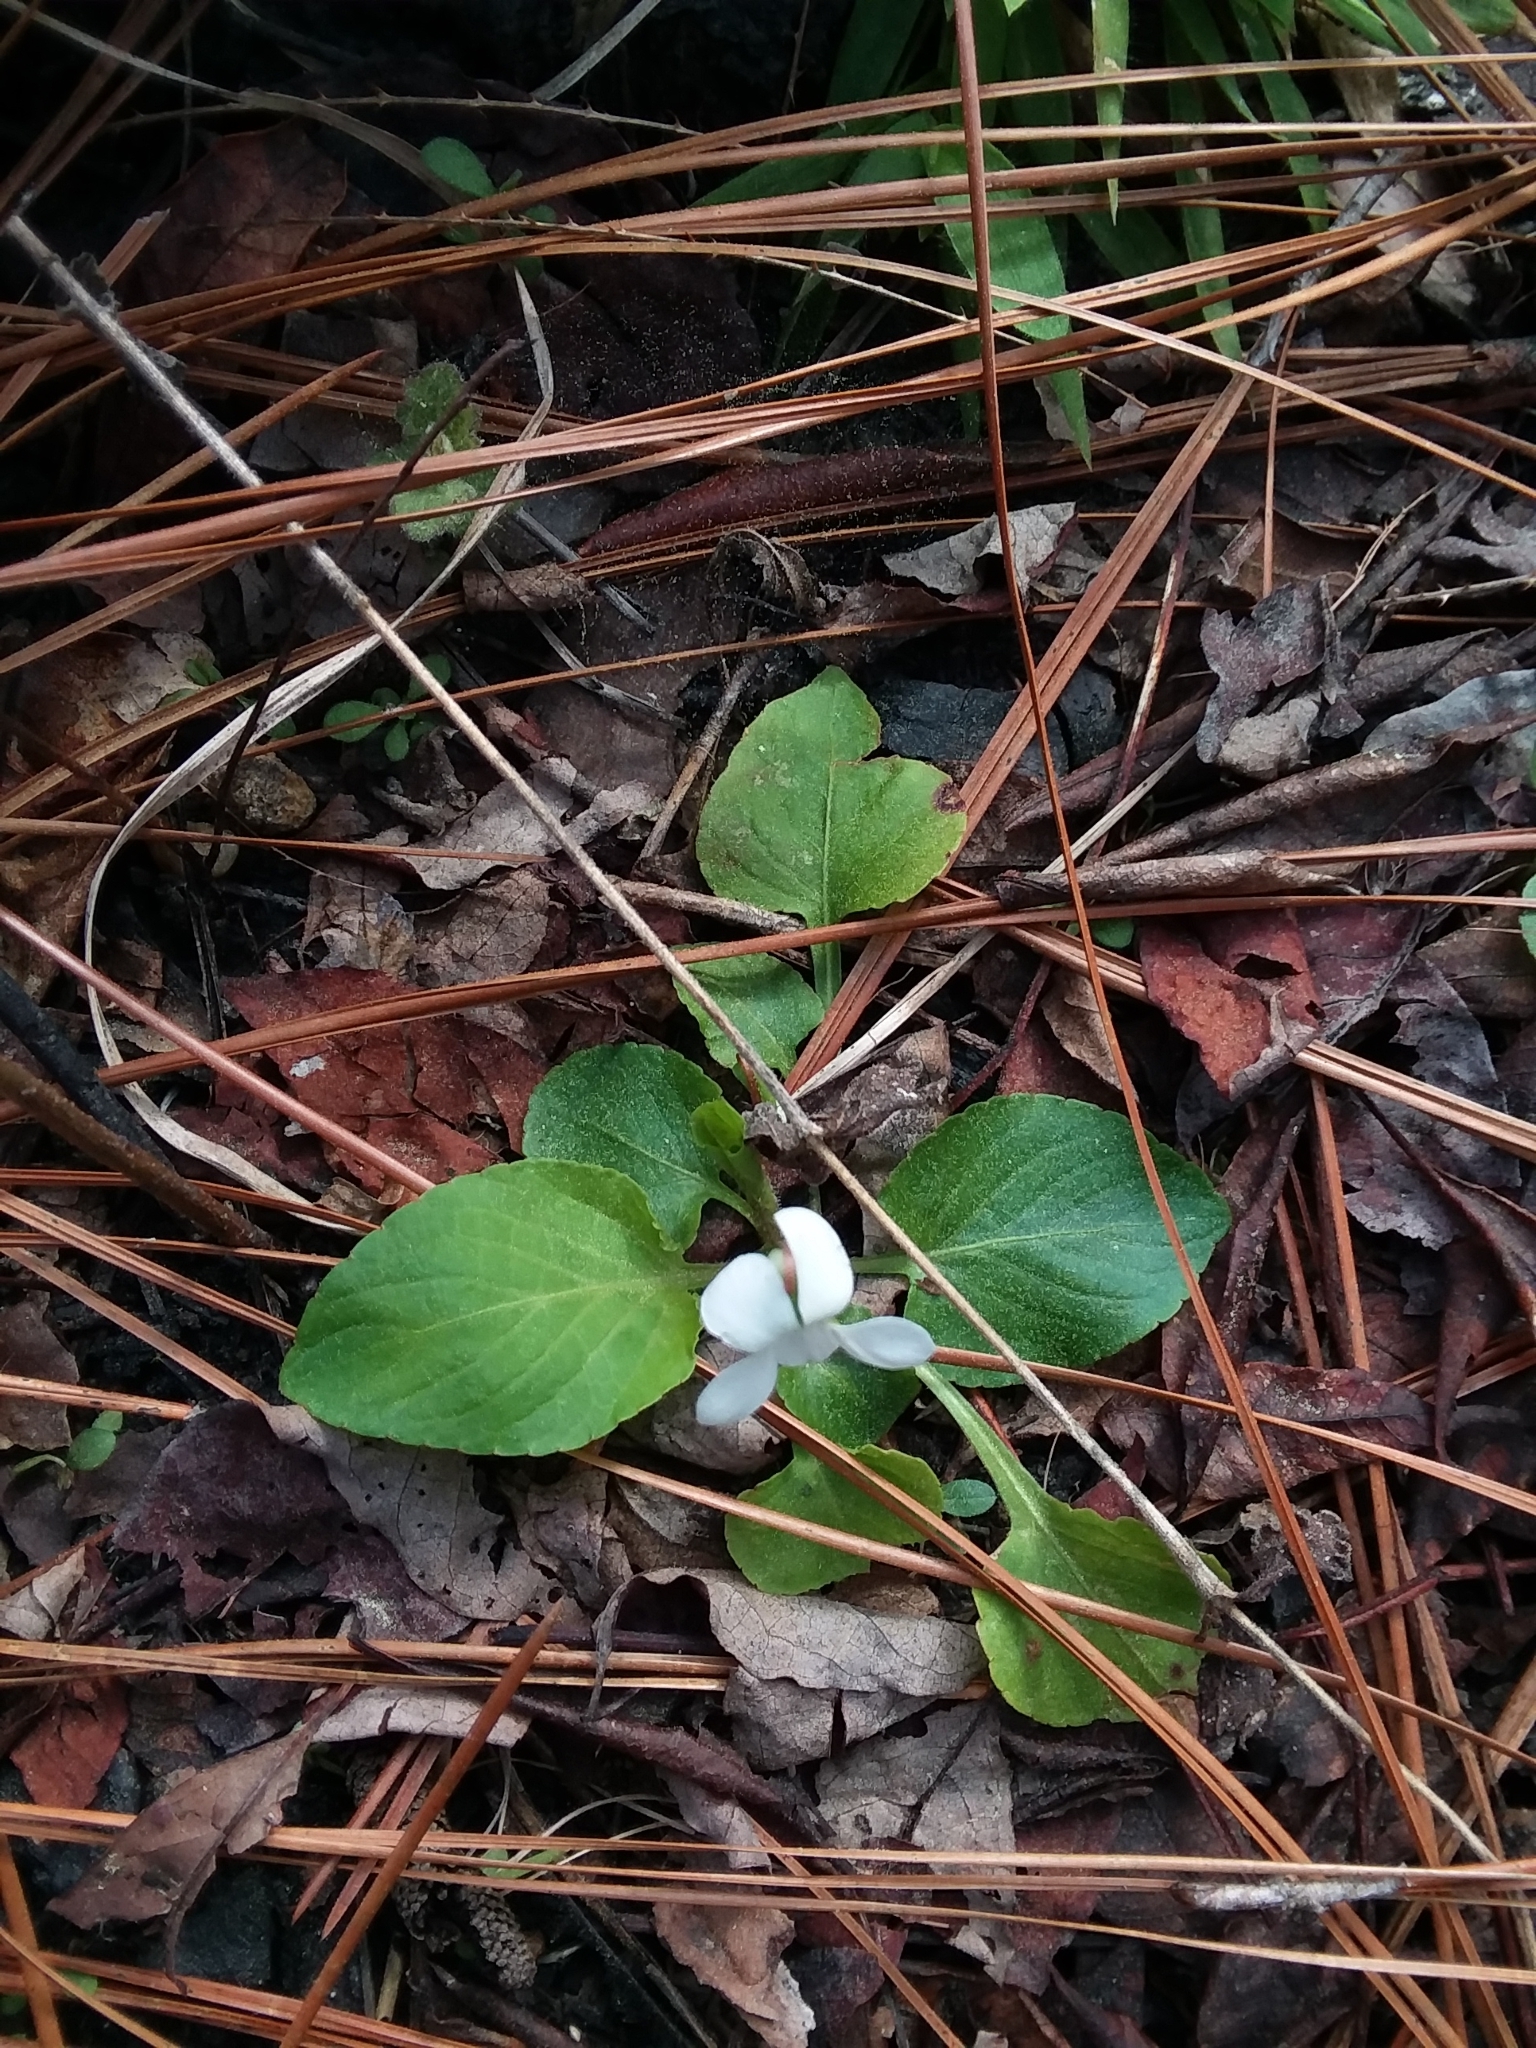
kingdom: Plantae
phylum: Tracheophyta
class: Magnoliopsida
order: Malpighiales
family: Violaceae
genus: Viola
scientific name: Viola primulifolia
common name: Primrose-leaf violet
